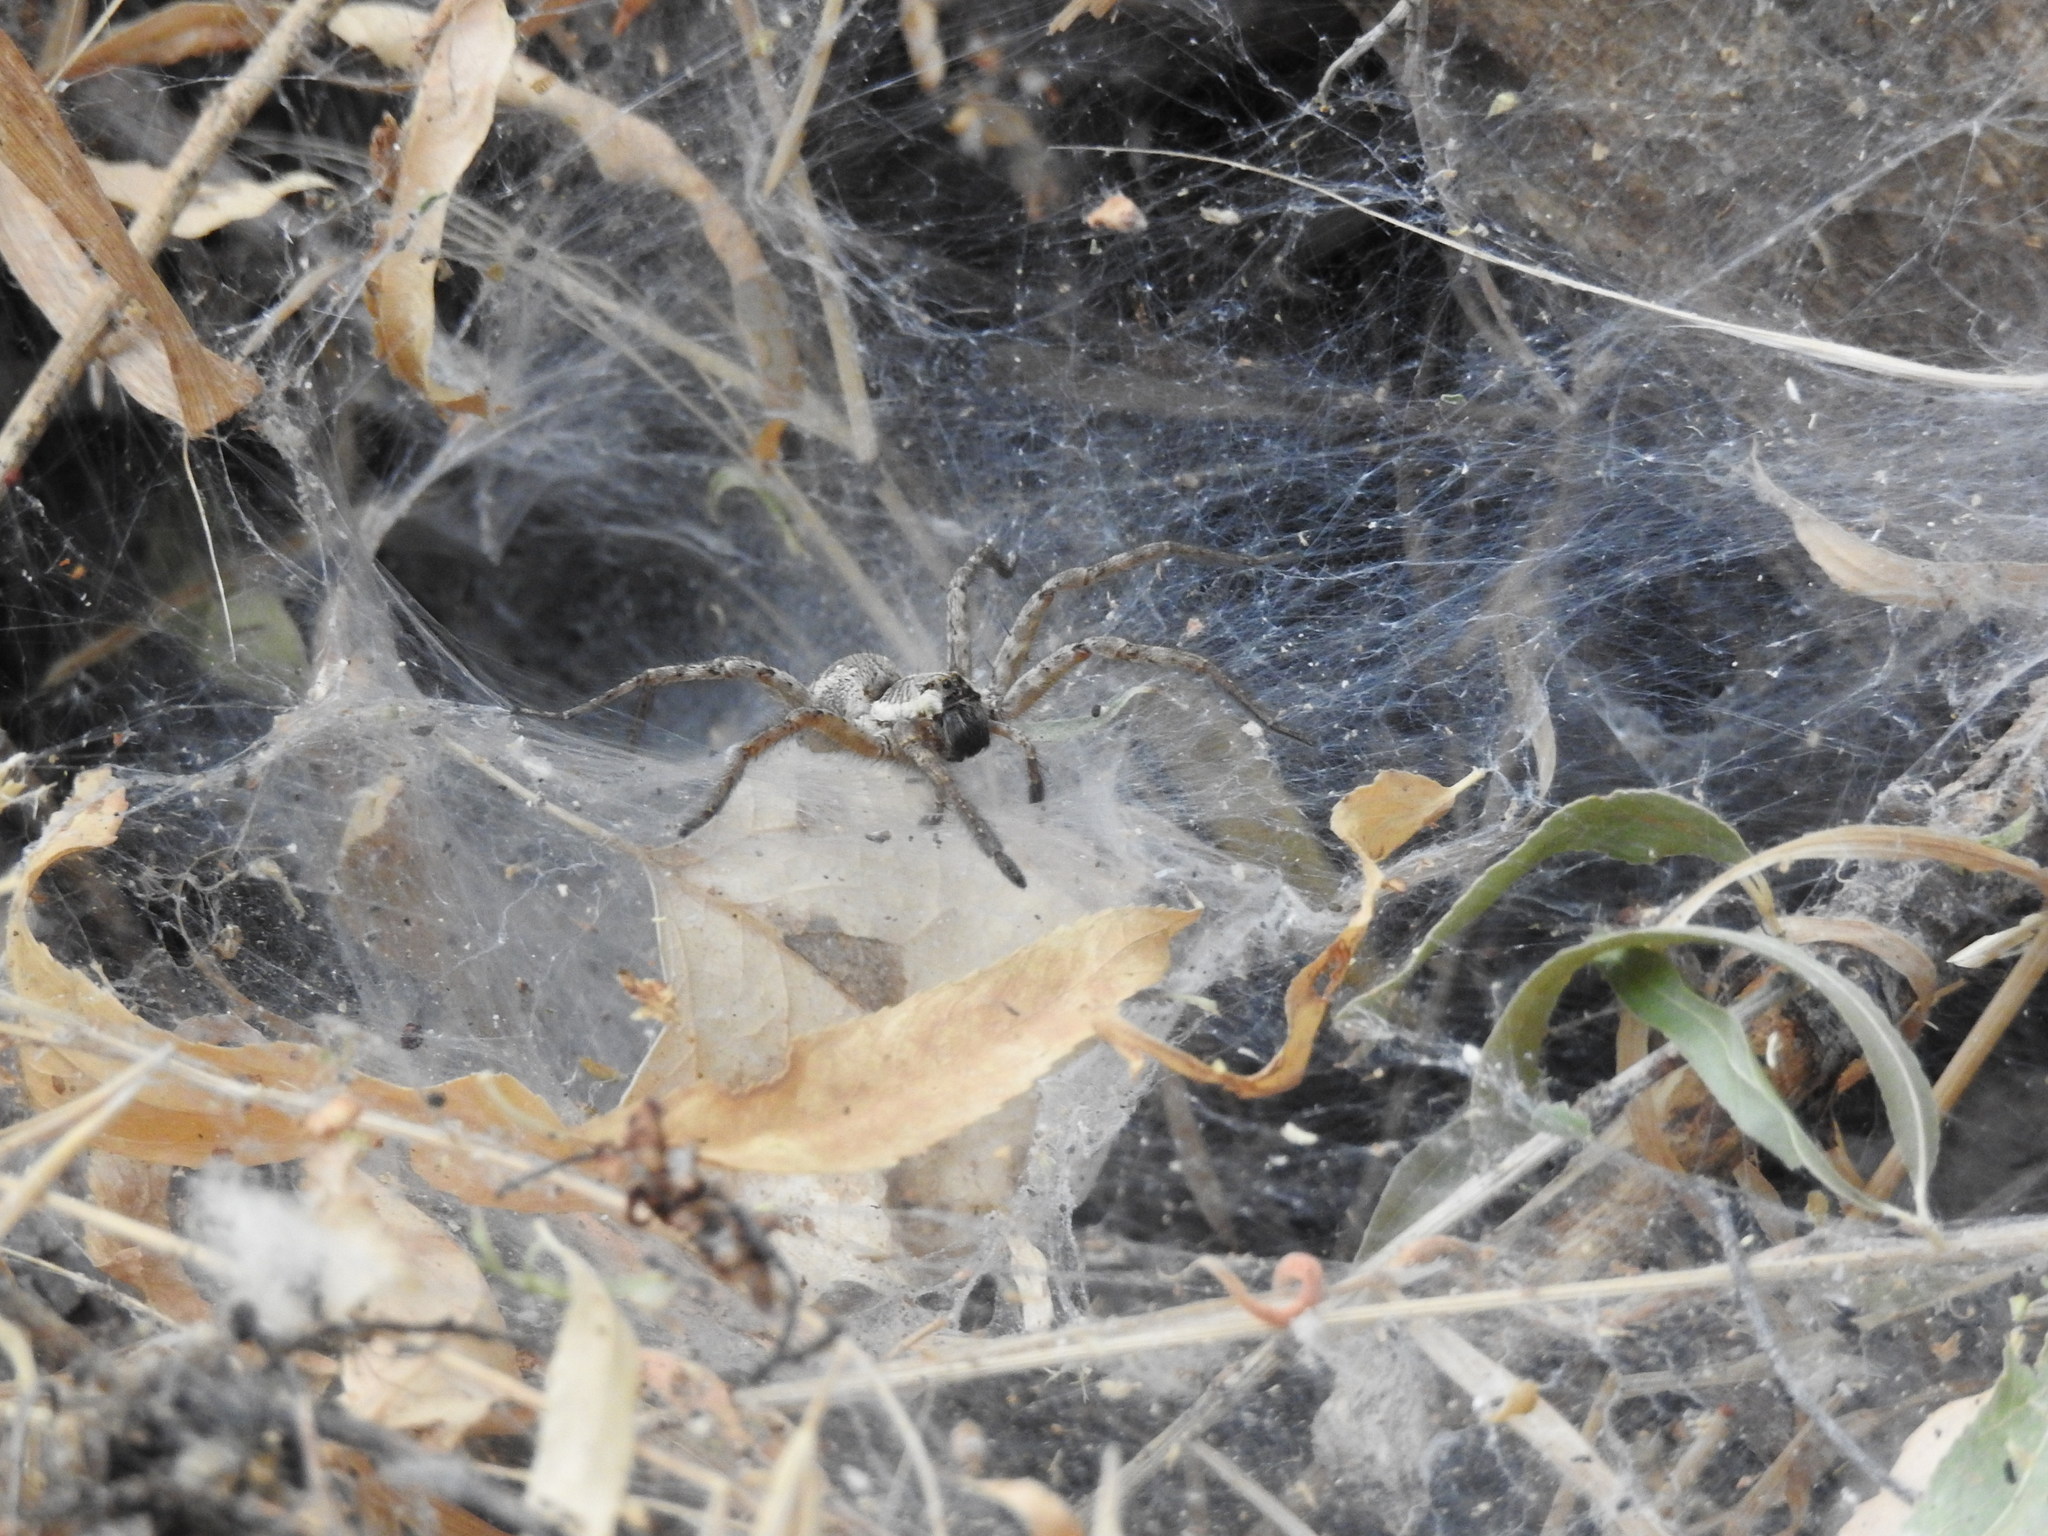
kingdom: Animalia
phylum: Arthropoda
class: Arachnida
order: Araneae
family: Lycosidae
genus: Sosippus
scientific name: Sosippus californicus
